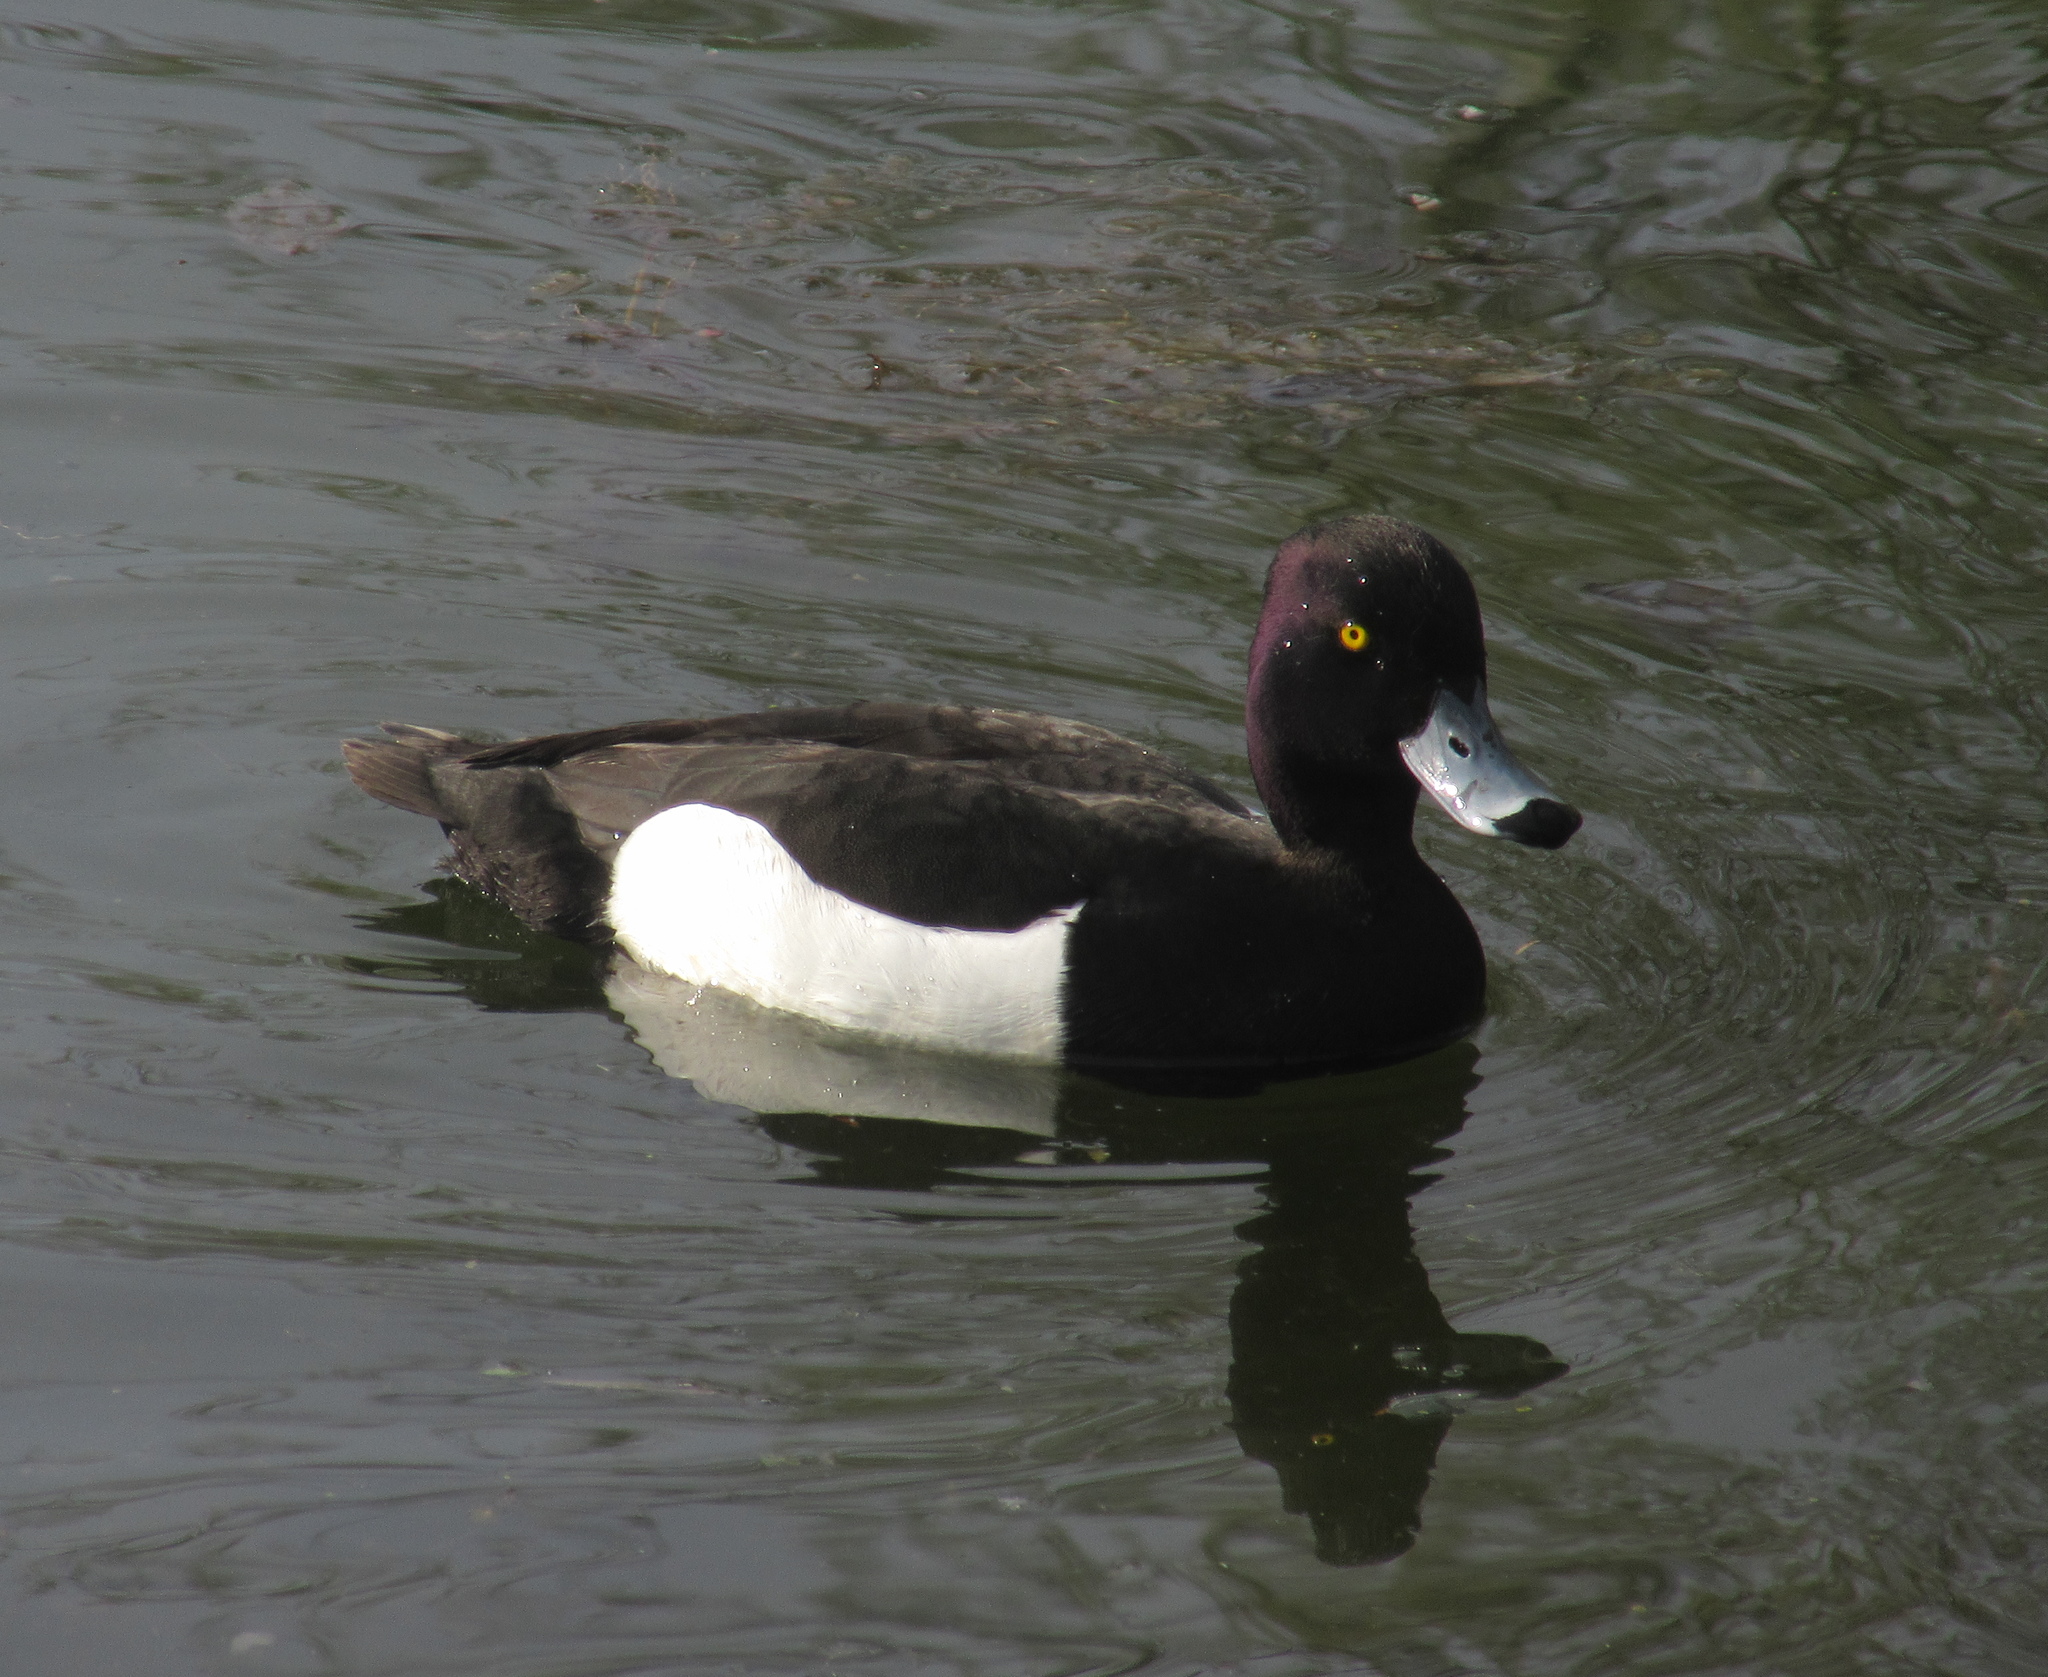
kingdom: Animalia
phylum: Chordata
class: Aves
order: Anseriformes
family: Anatidae
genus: Aythya
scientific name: Aythya fuligula
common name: Tufted duck
